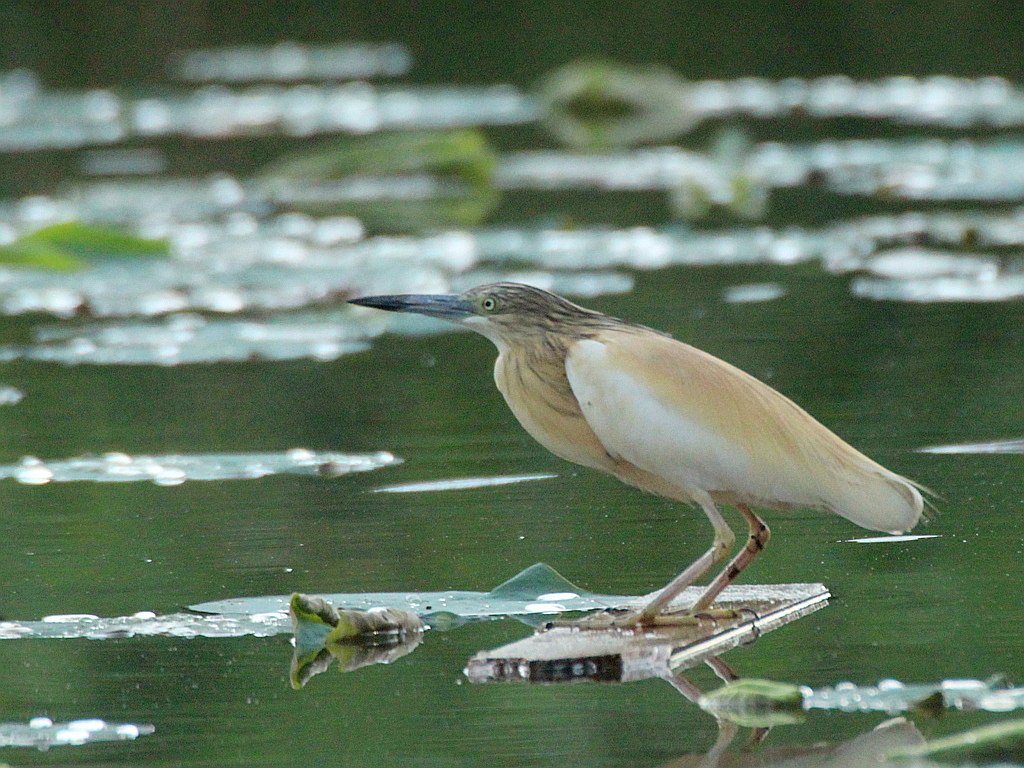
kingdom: Animalia
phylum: Chordata
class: Aves
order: Pelecaniformes
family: Ardeidae
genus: Ardeola
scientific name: Ardeola ralloides
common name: Squacco heron
